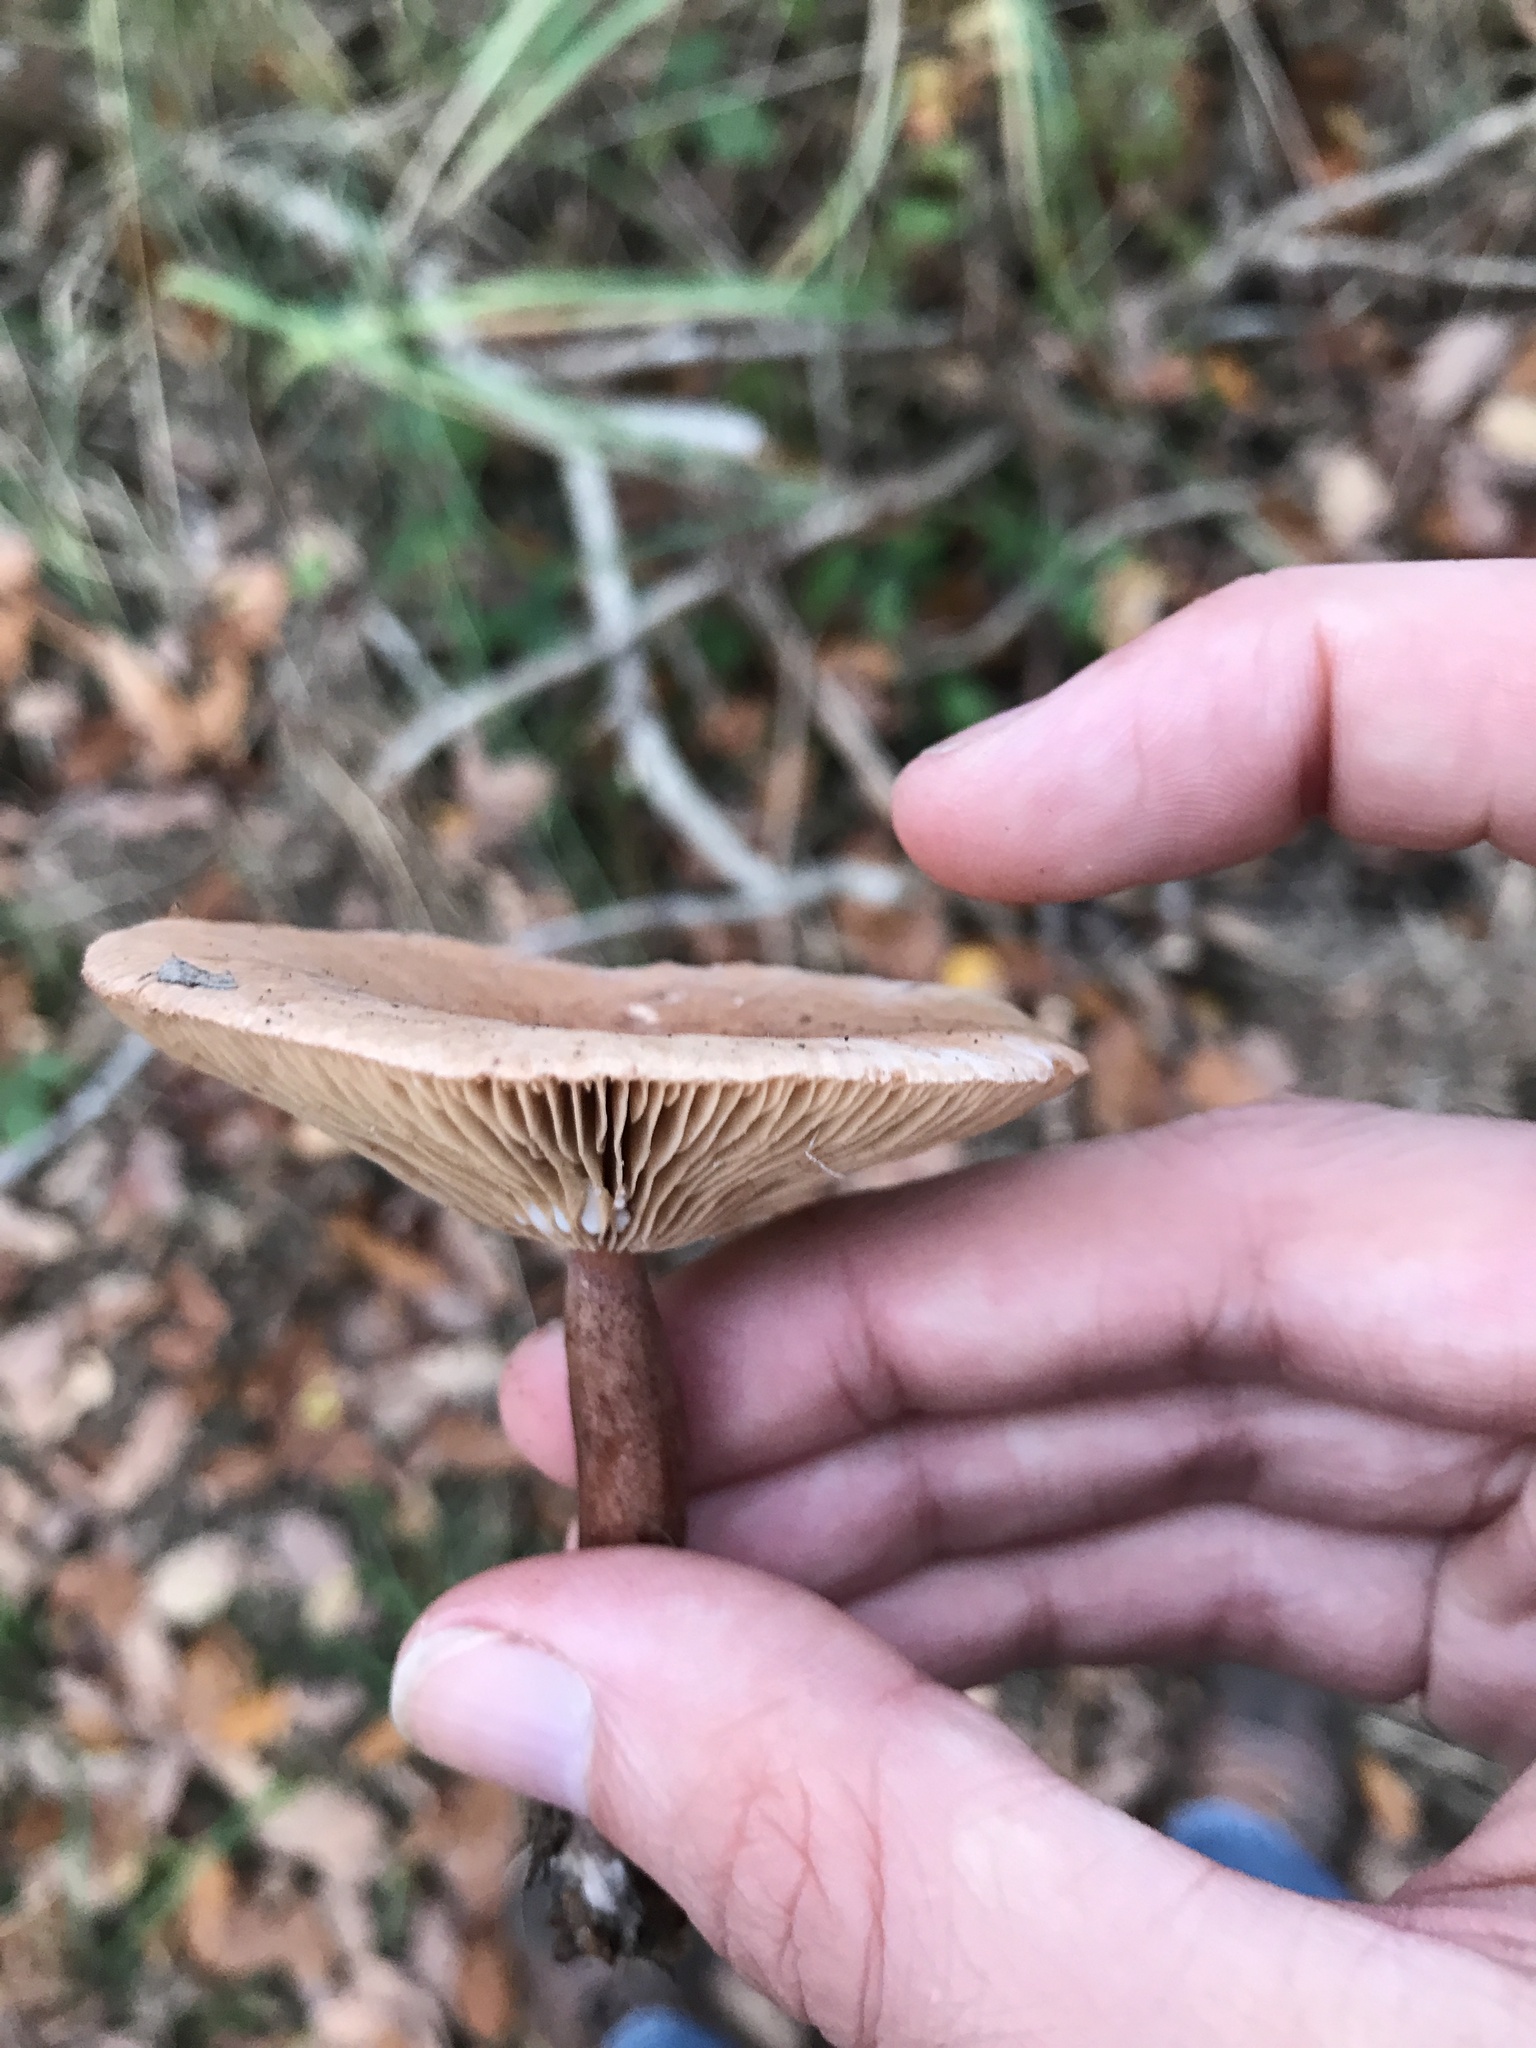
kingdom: Fungi
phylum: Basidiomycota
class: Agaricomycetes
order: Russulales
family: Russulaceae
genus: Lactarius
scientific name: Lactarius quietus
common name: Oak milk-cap
